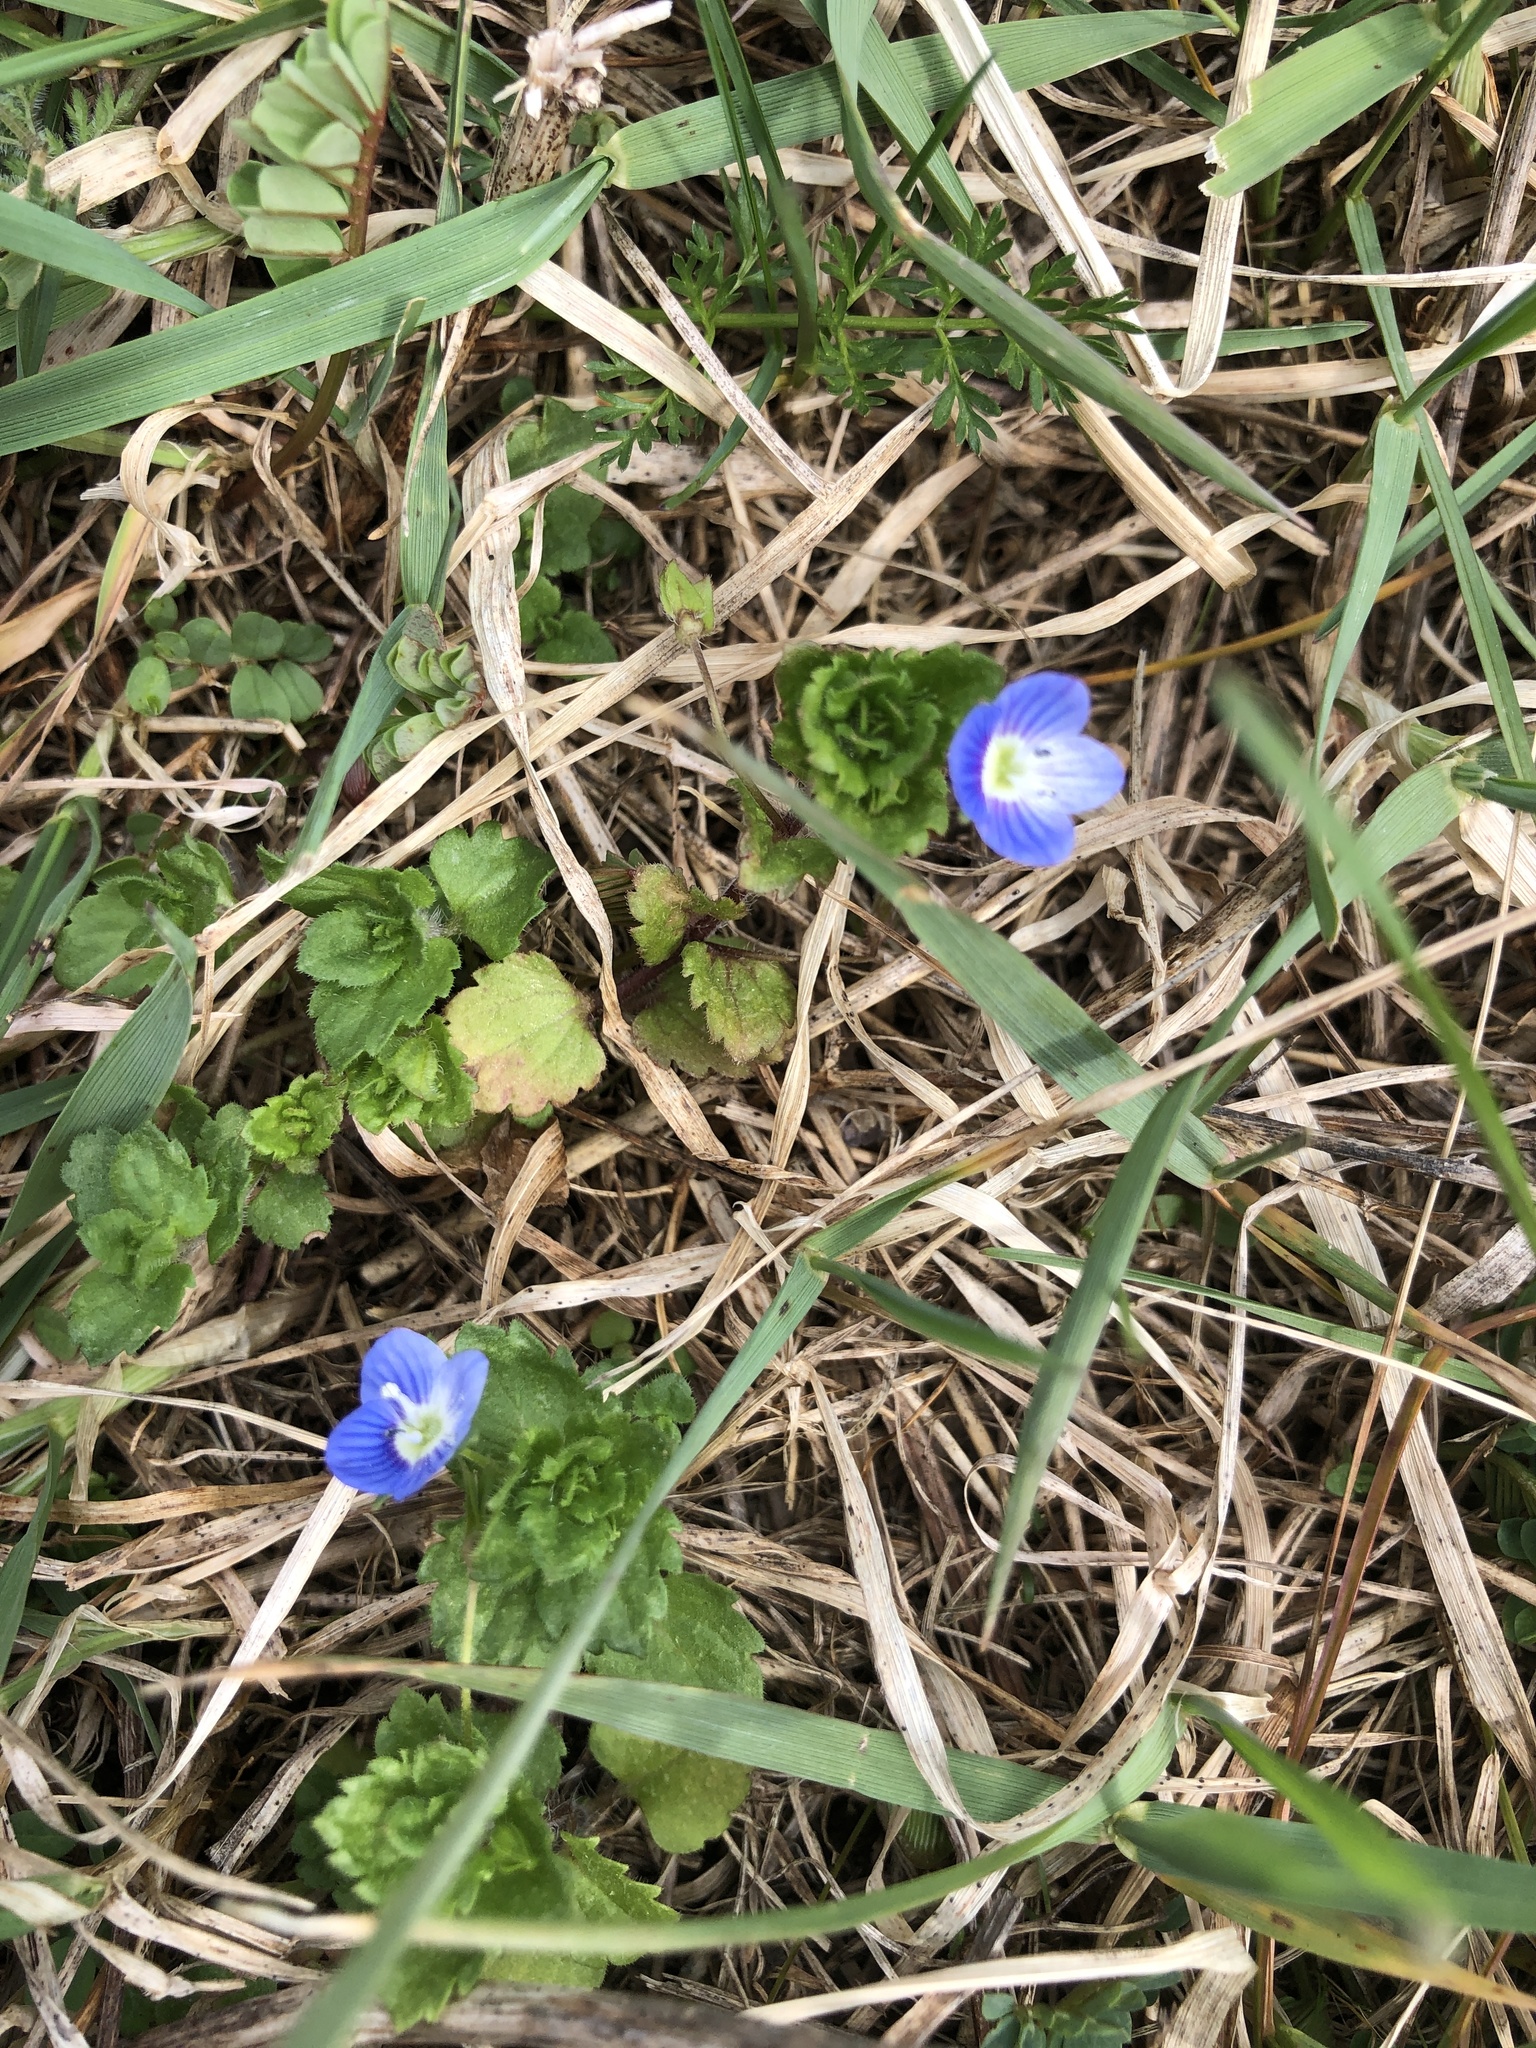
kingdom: Plantae
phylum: Tracheophyta
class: Magnoliopsida
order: Lamiales
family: Plantaginaceae
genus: Veronica
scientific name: Veronica persica
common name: Common field-speedwell
